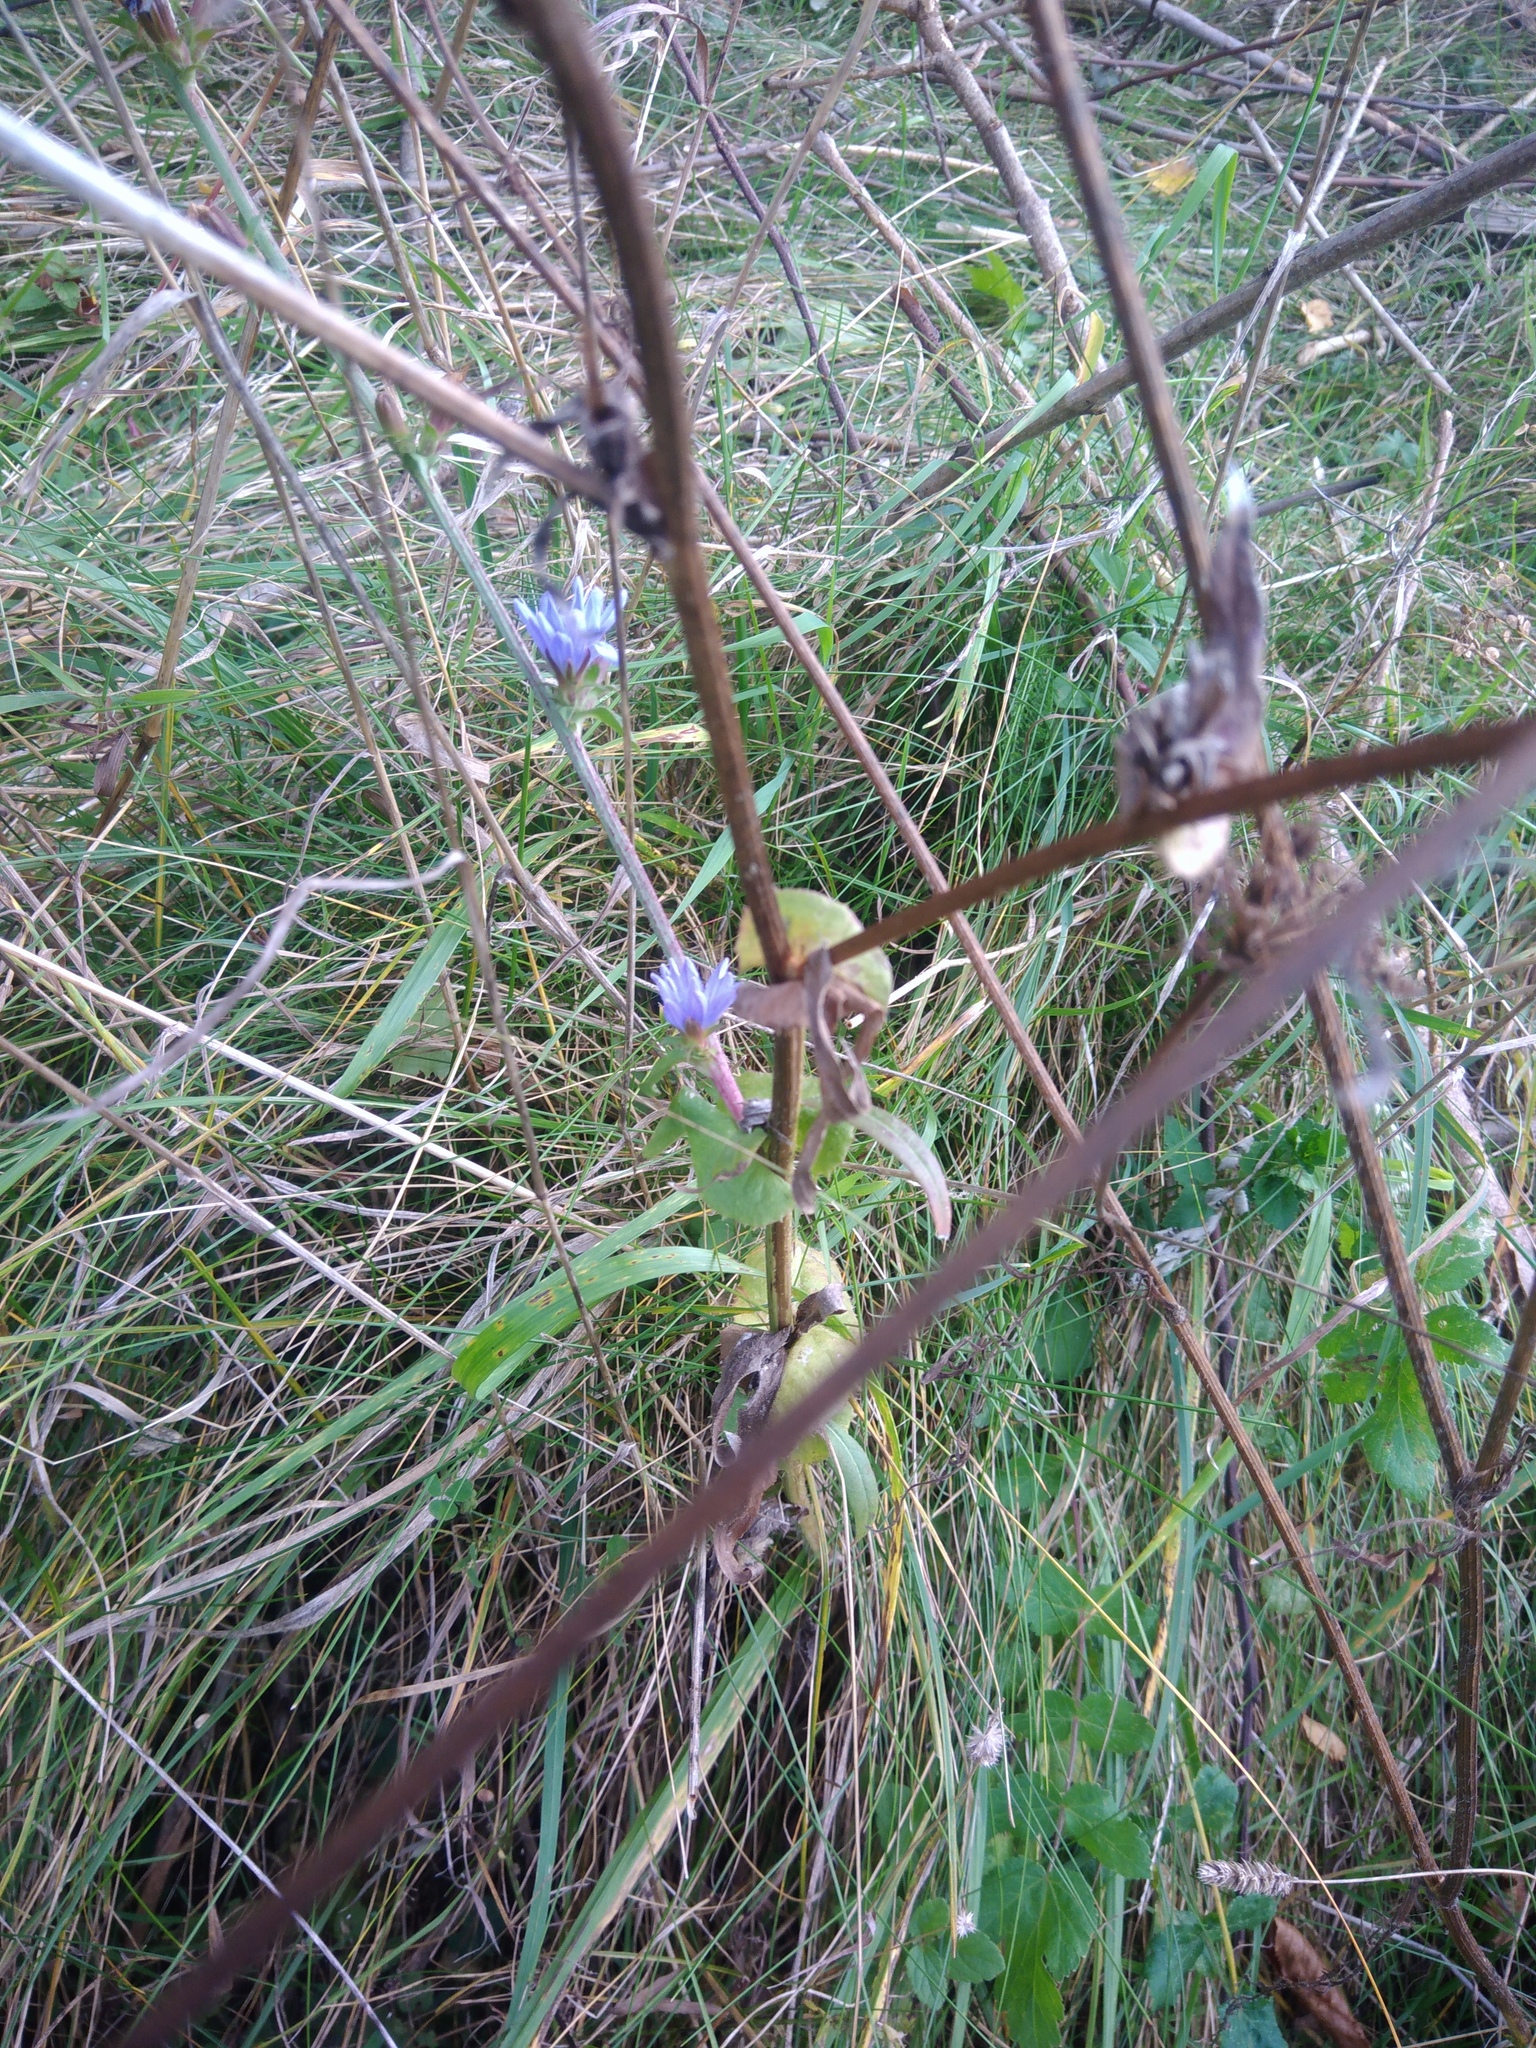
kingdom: Plantae
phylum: Tracheophyta
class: Magnoliopsida
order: Asterales
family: Asteraceae
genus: Cichorium
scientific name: Cichorium intybus
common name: Chicory
